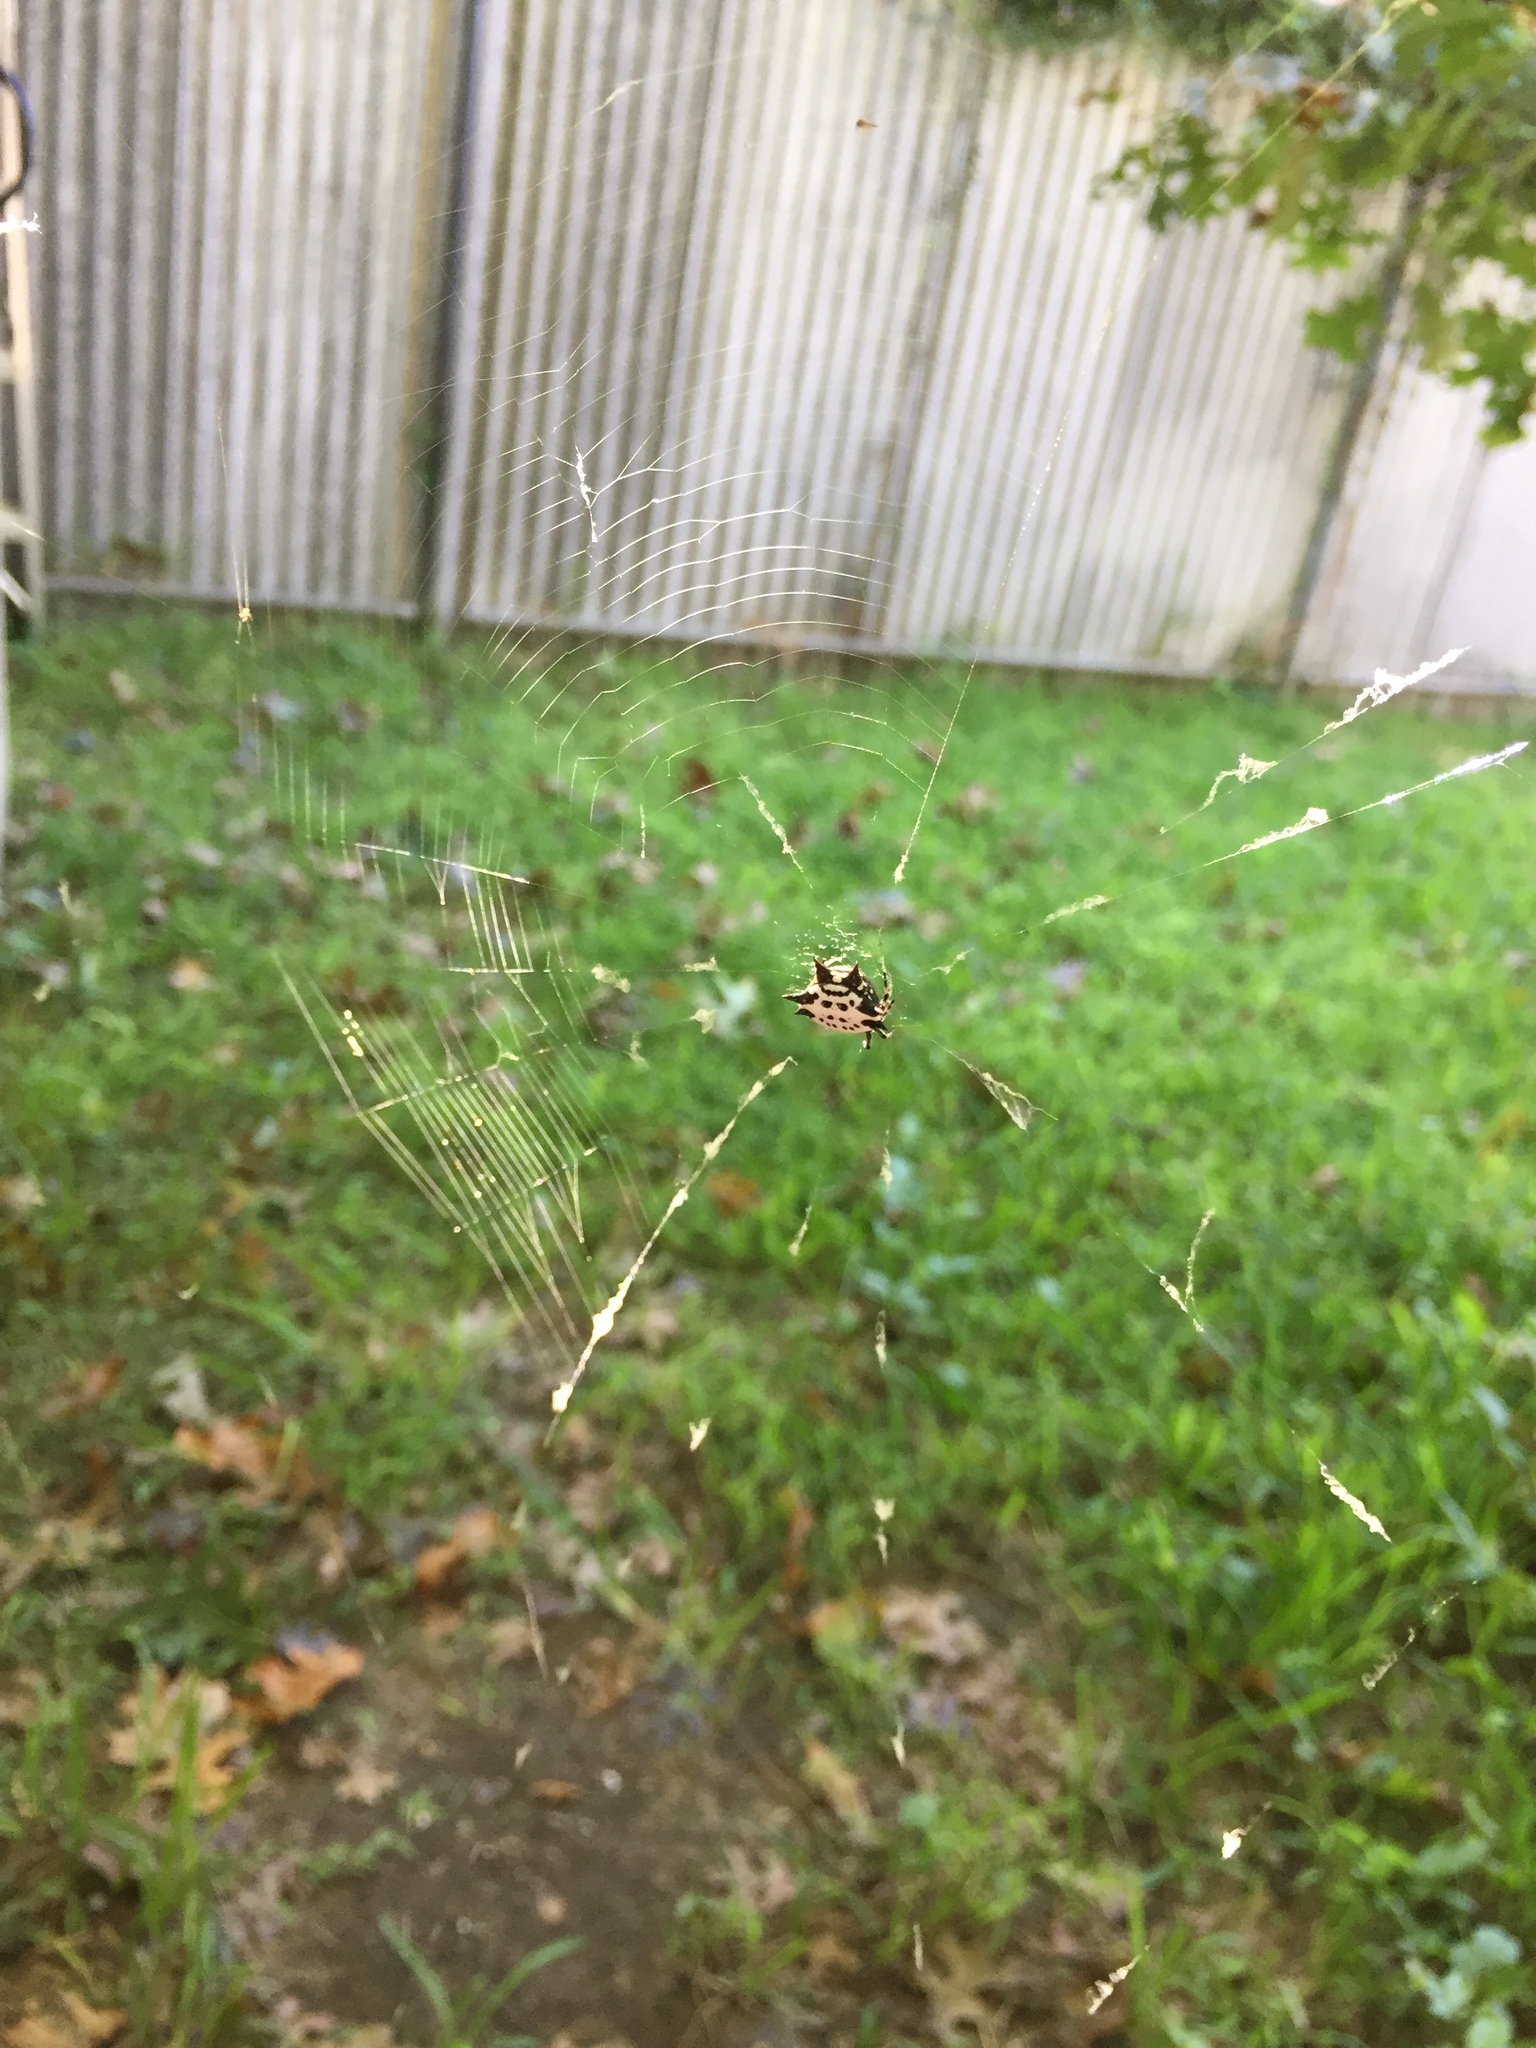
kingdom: Animalia
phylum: Arthropoda
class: Arachnida
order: Araneae
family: Araneidae
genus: Gasteracantha
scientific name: Gasteracantha cancriformis
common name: Orb weavers
